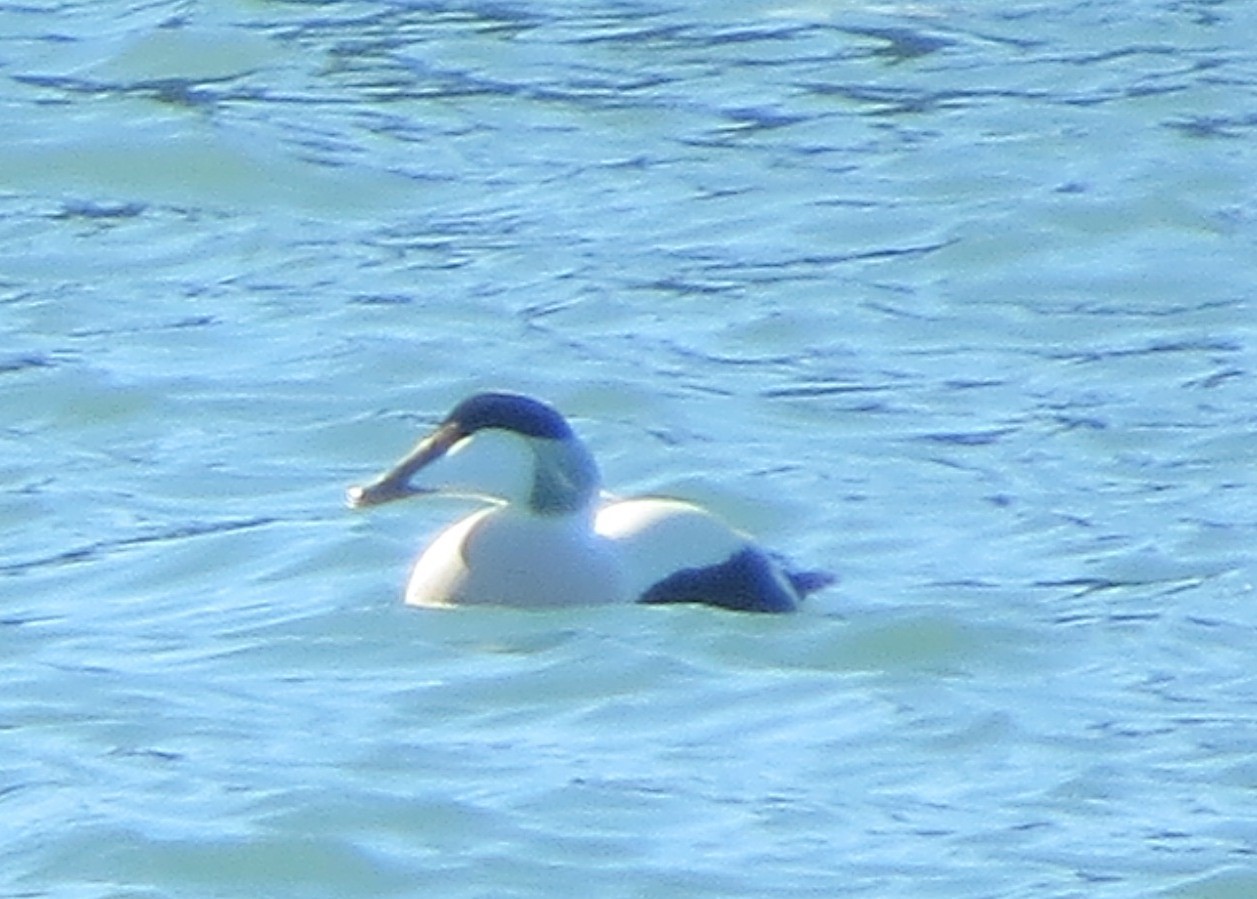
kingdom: Animalia
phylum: Chordata
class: Aves
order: Anseriformes
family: Anatidae
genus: Somateria
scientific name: Somateria mollissima
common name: Common eider
